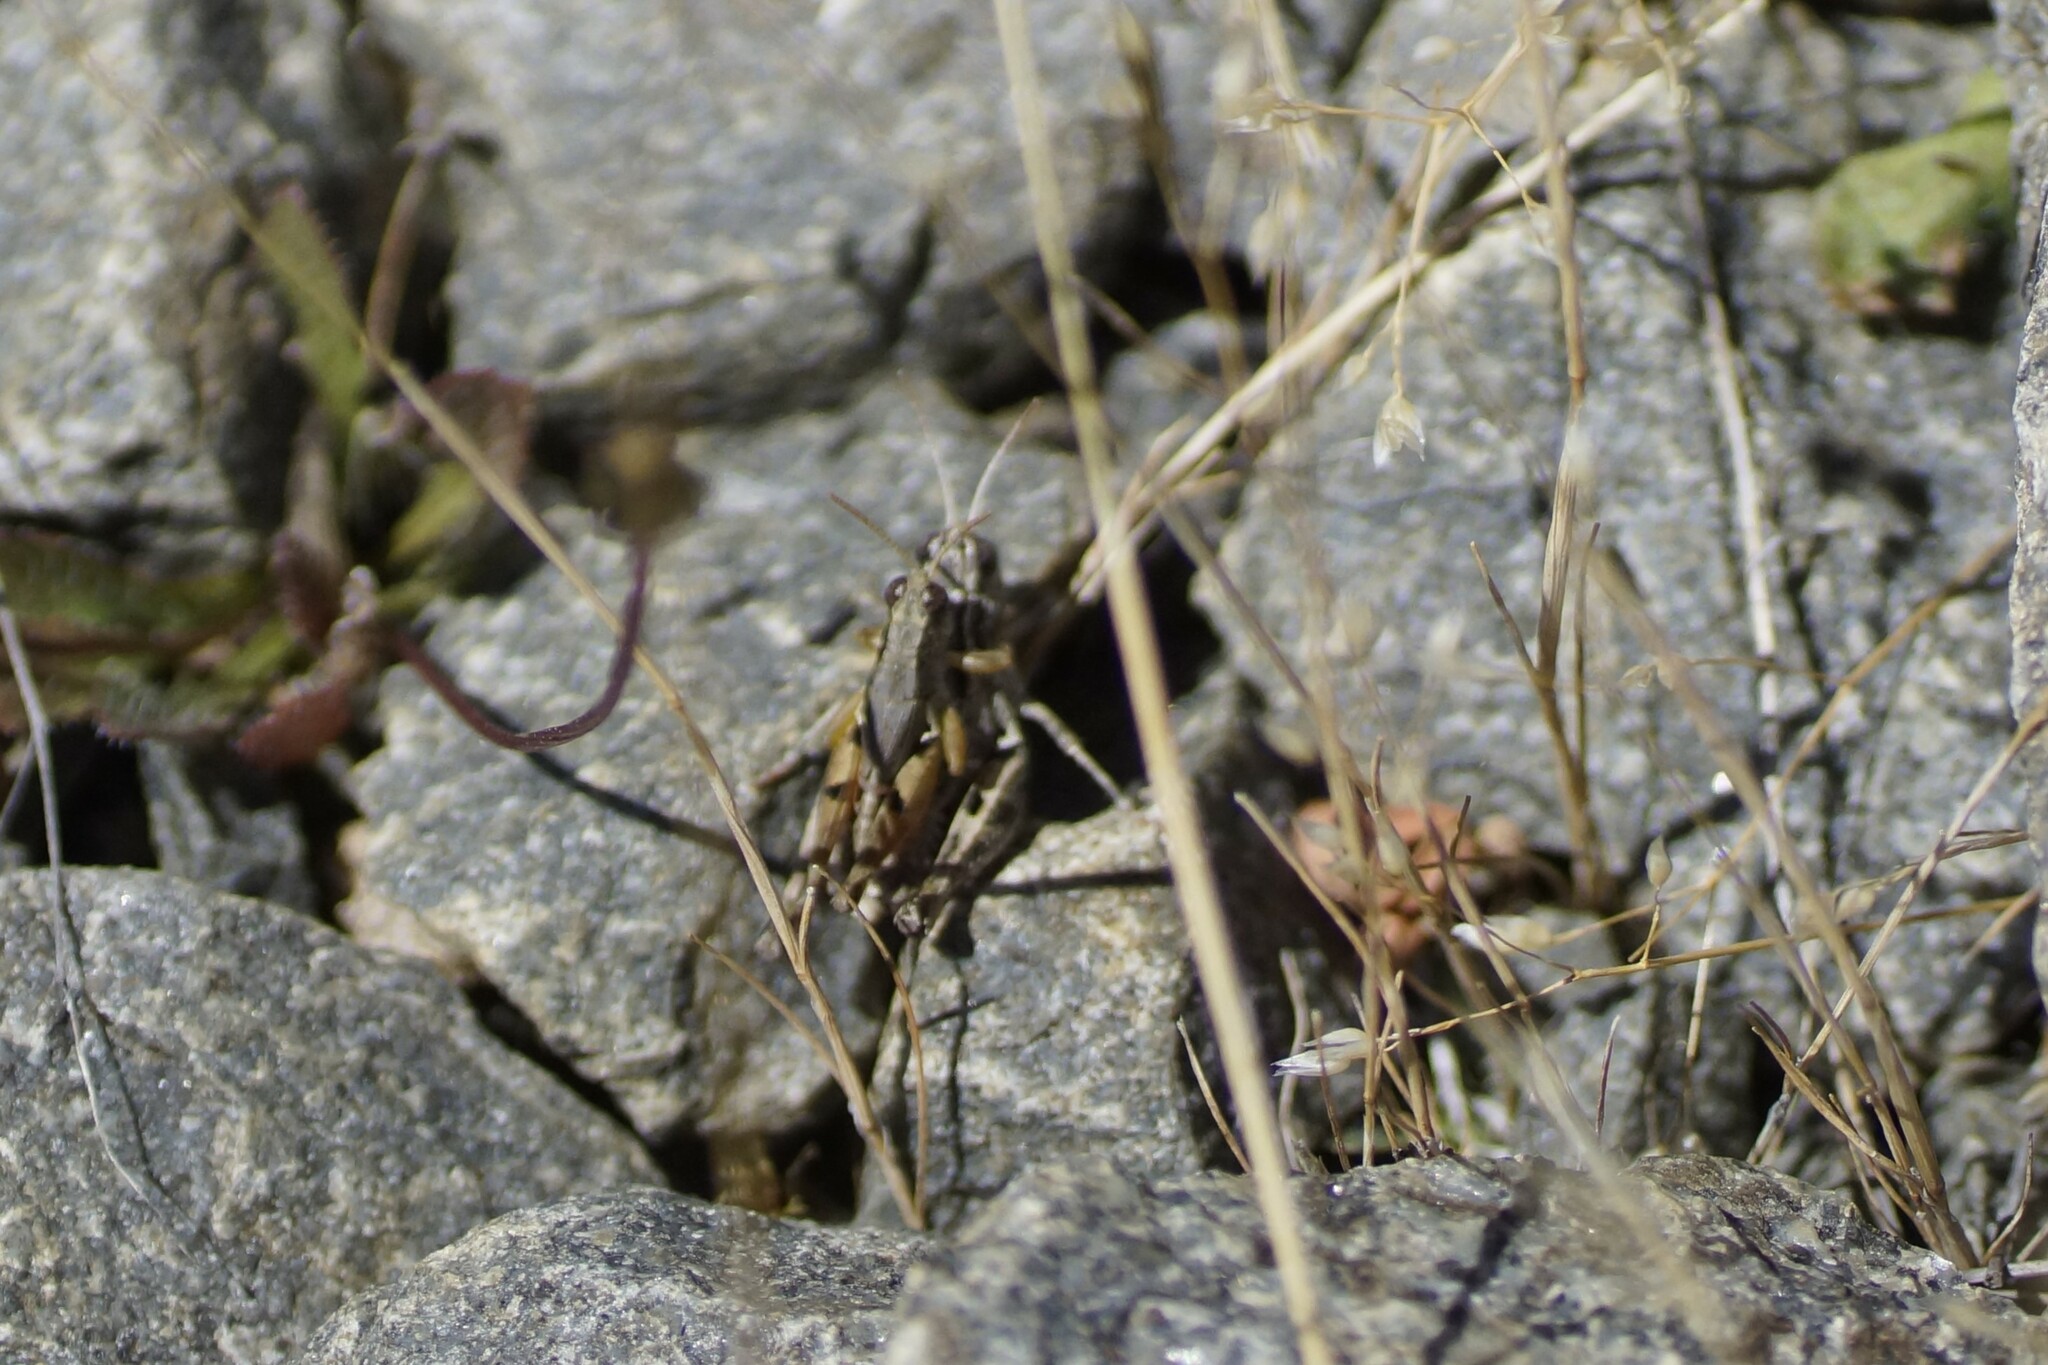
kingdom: Animalia
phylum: Arthropoda
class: Insecta
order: Orthoptera
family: Acrididae
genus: Phaulacridium
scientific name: Phaulacridium vittatum
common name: Wingless grasshopper
